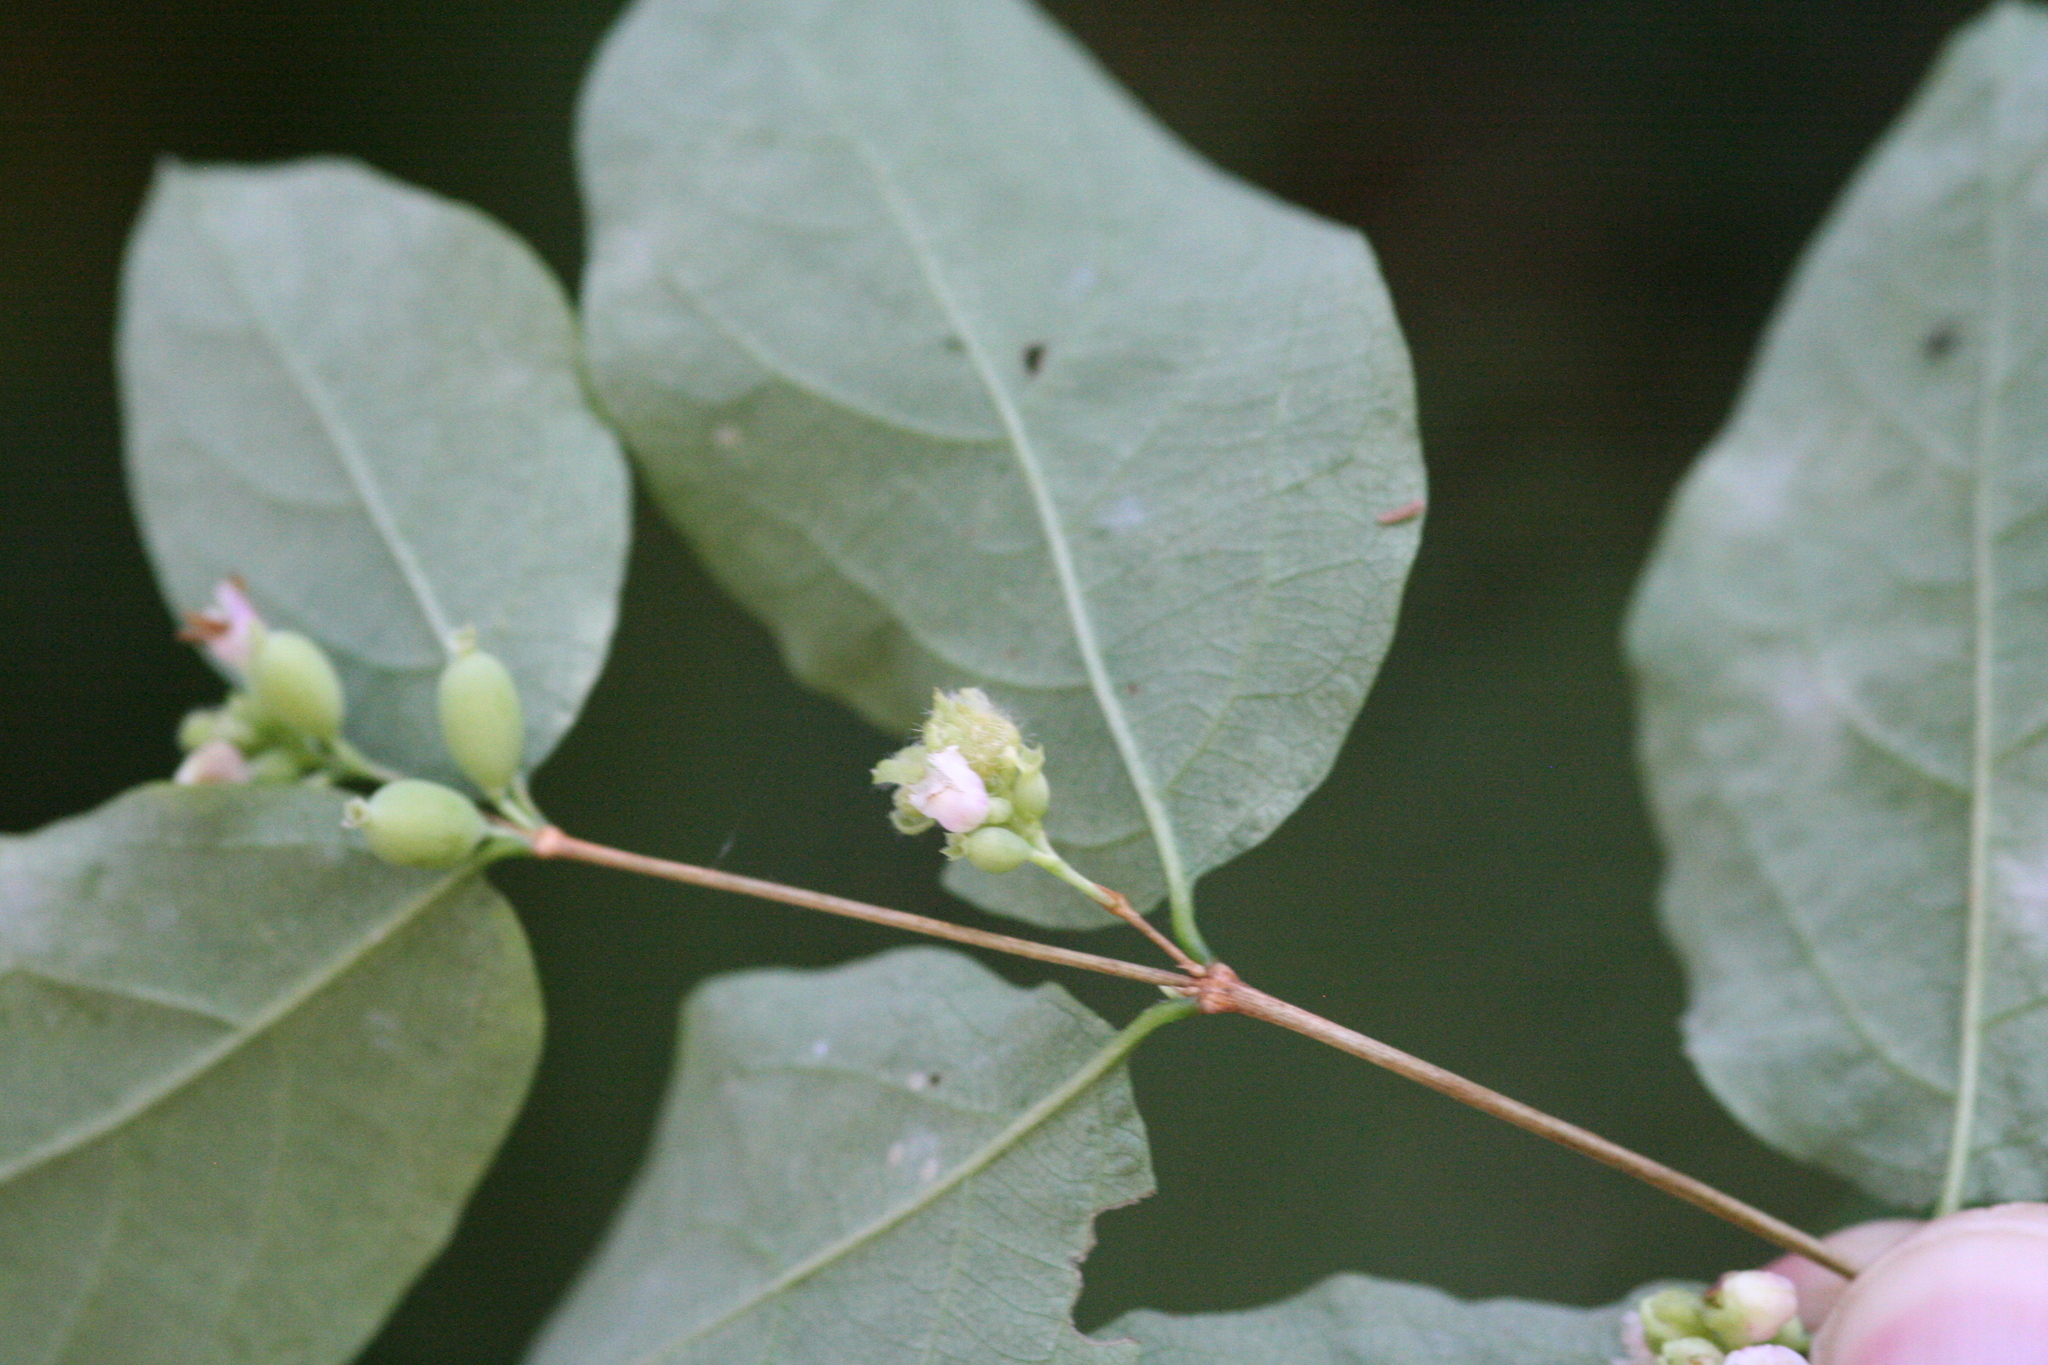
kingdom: Plantae
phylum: Tracheophyta
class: Magnoliopsida
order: Dipsacales
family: Caprifoliaceae
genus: Symphoricarpos
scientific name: Symphoricarpos albus
